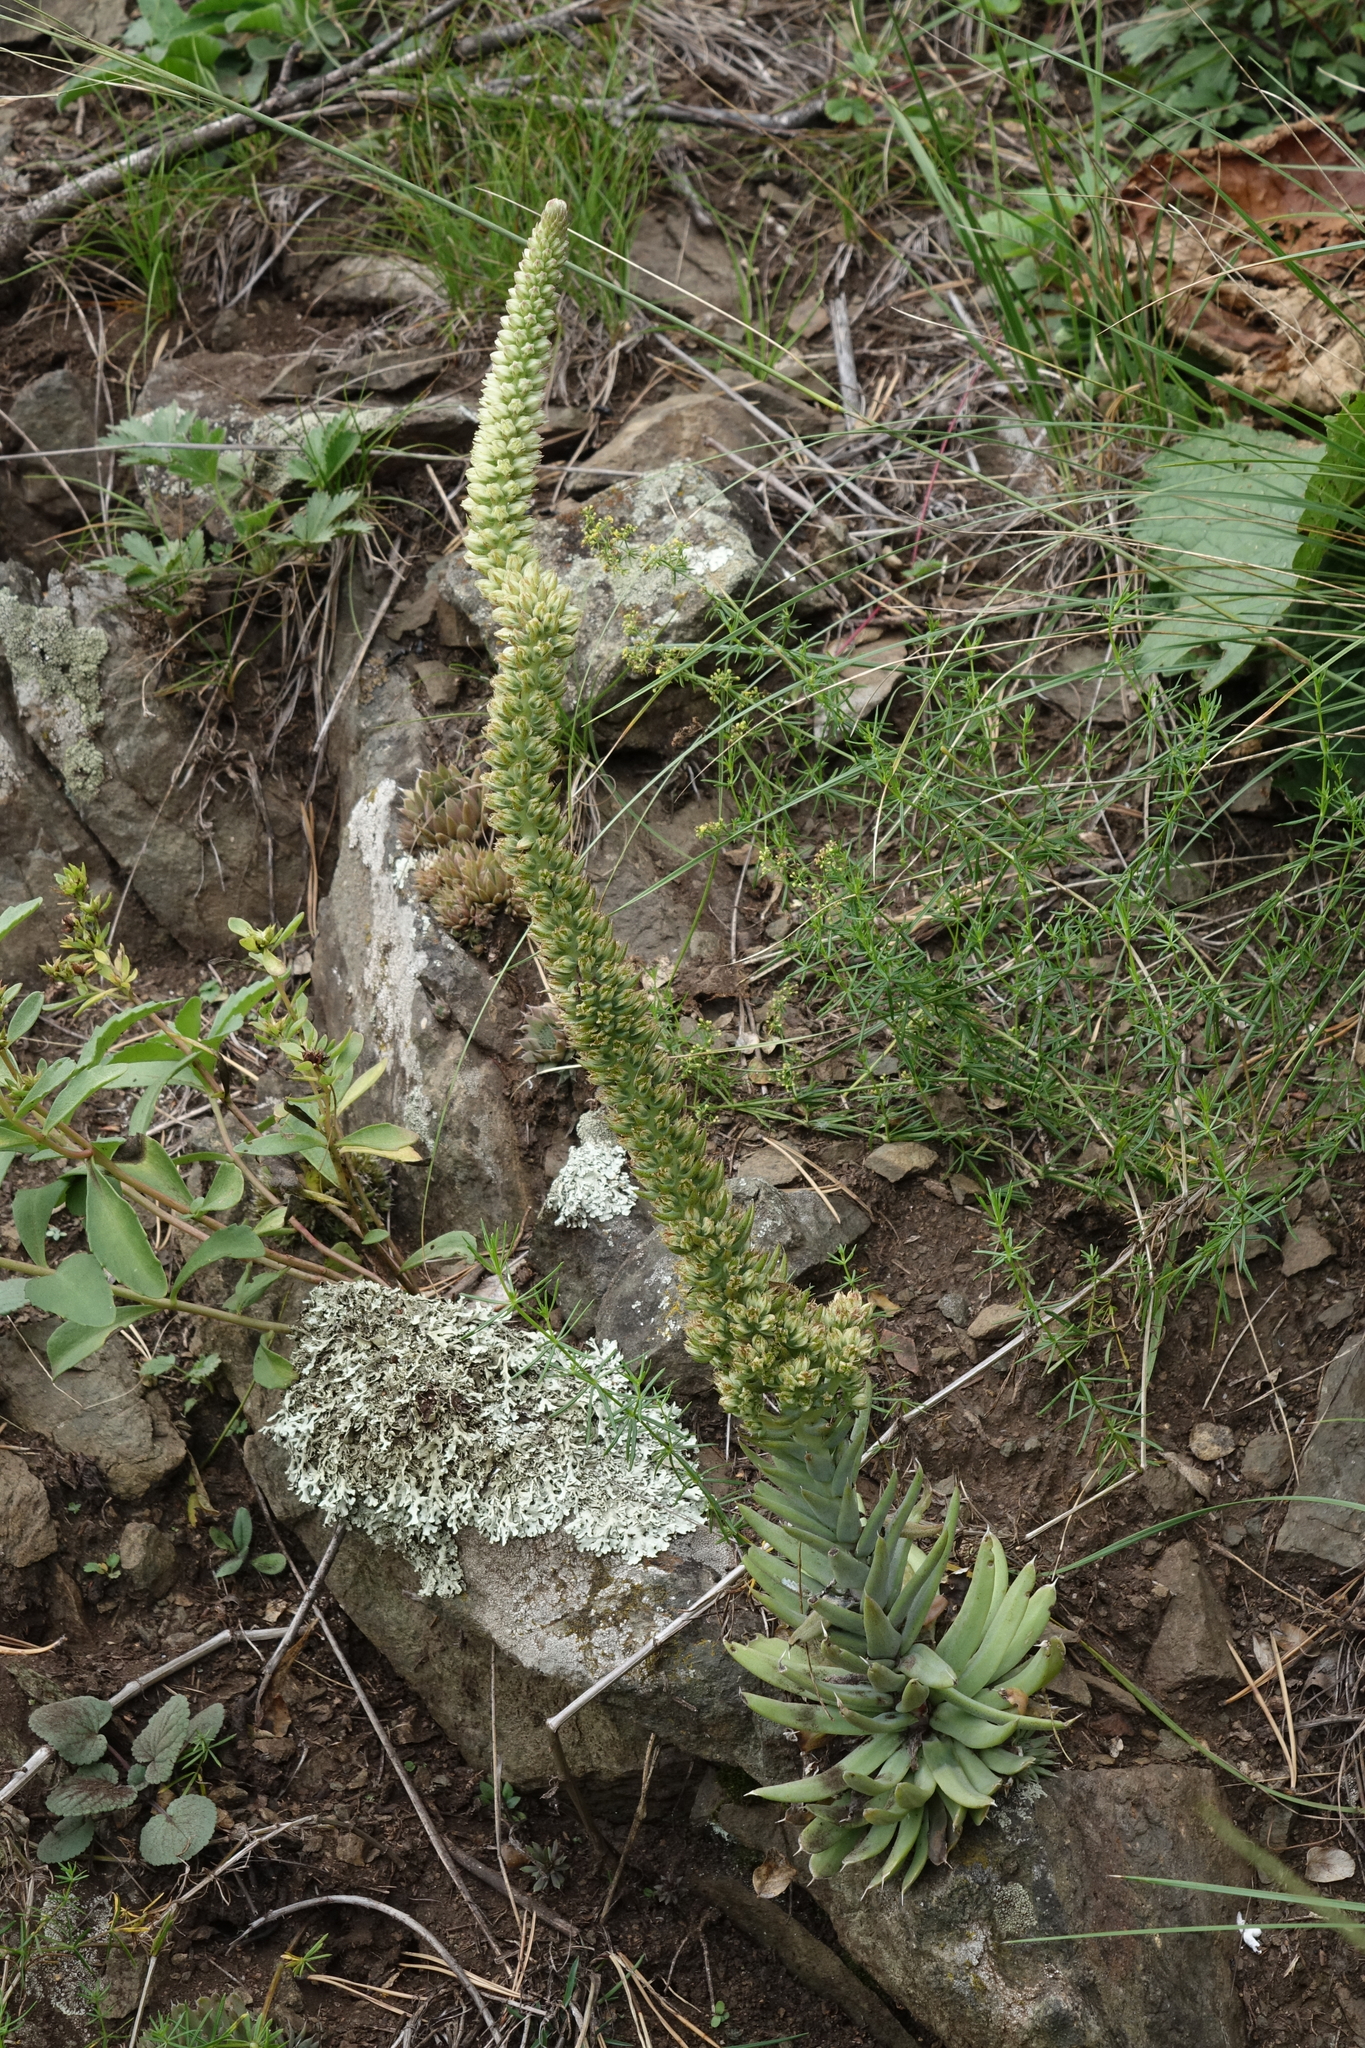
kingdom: Plantae
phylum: Tracheophyta
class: Magnoliopsida
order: Saxifragales
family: Crassulaceae
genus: Orostachys
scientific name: Orostachys spinosa
